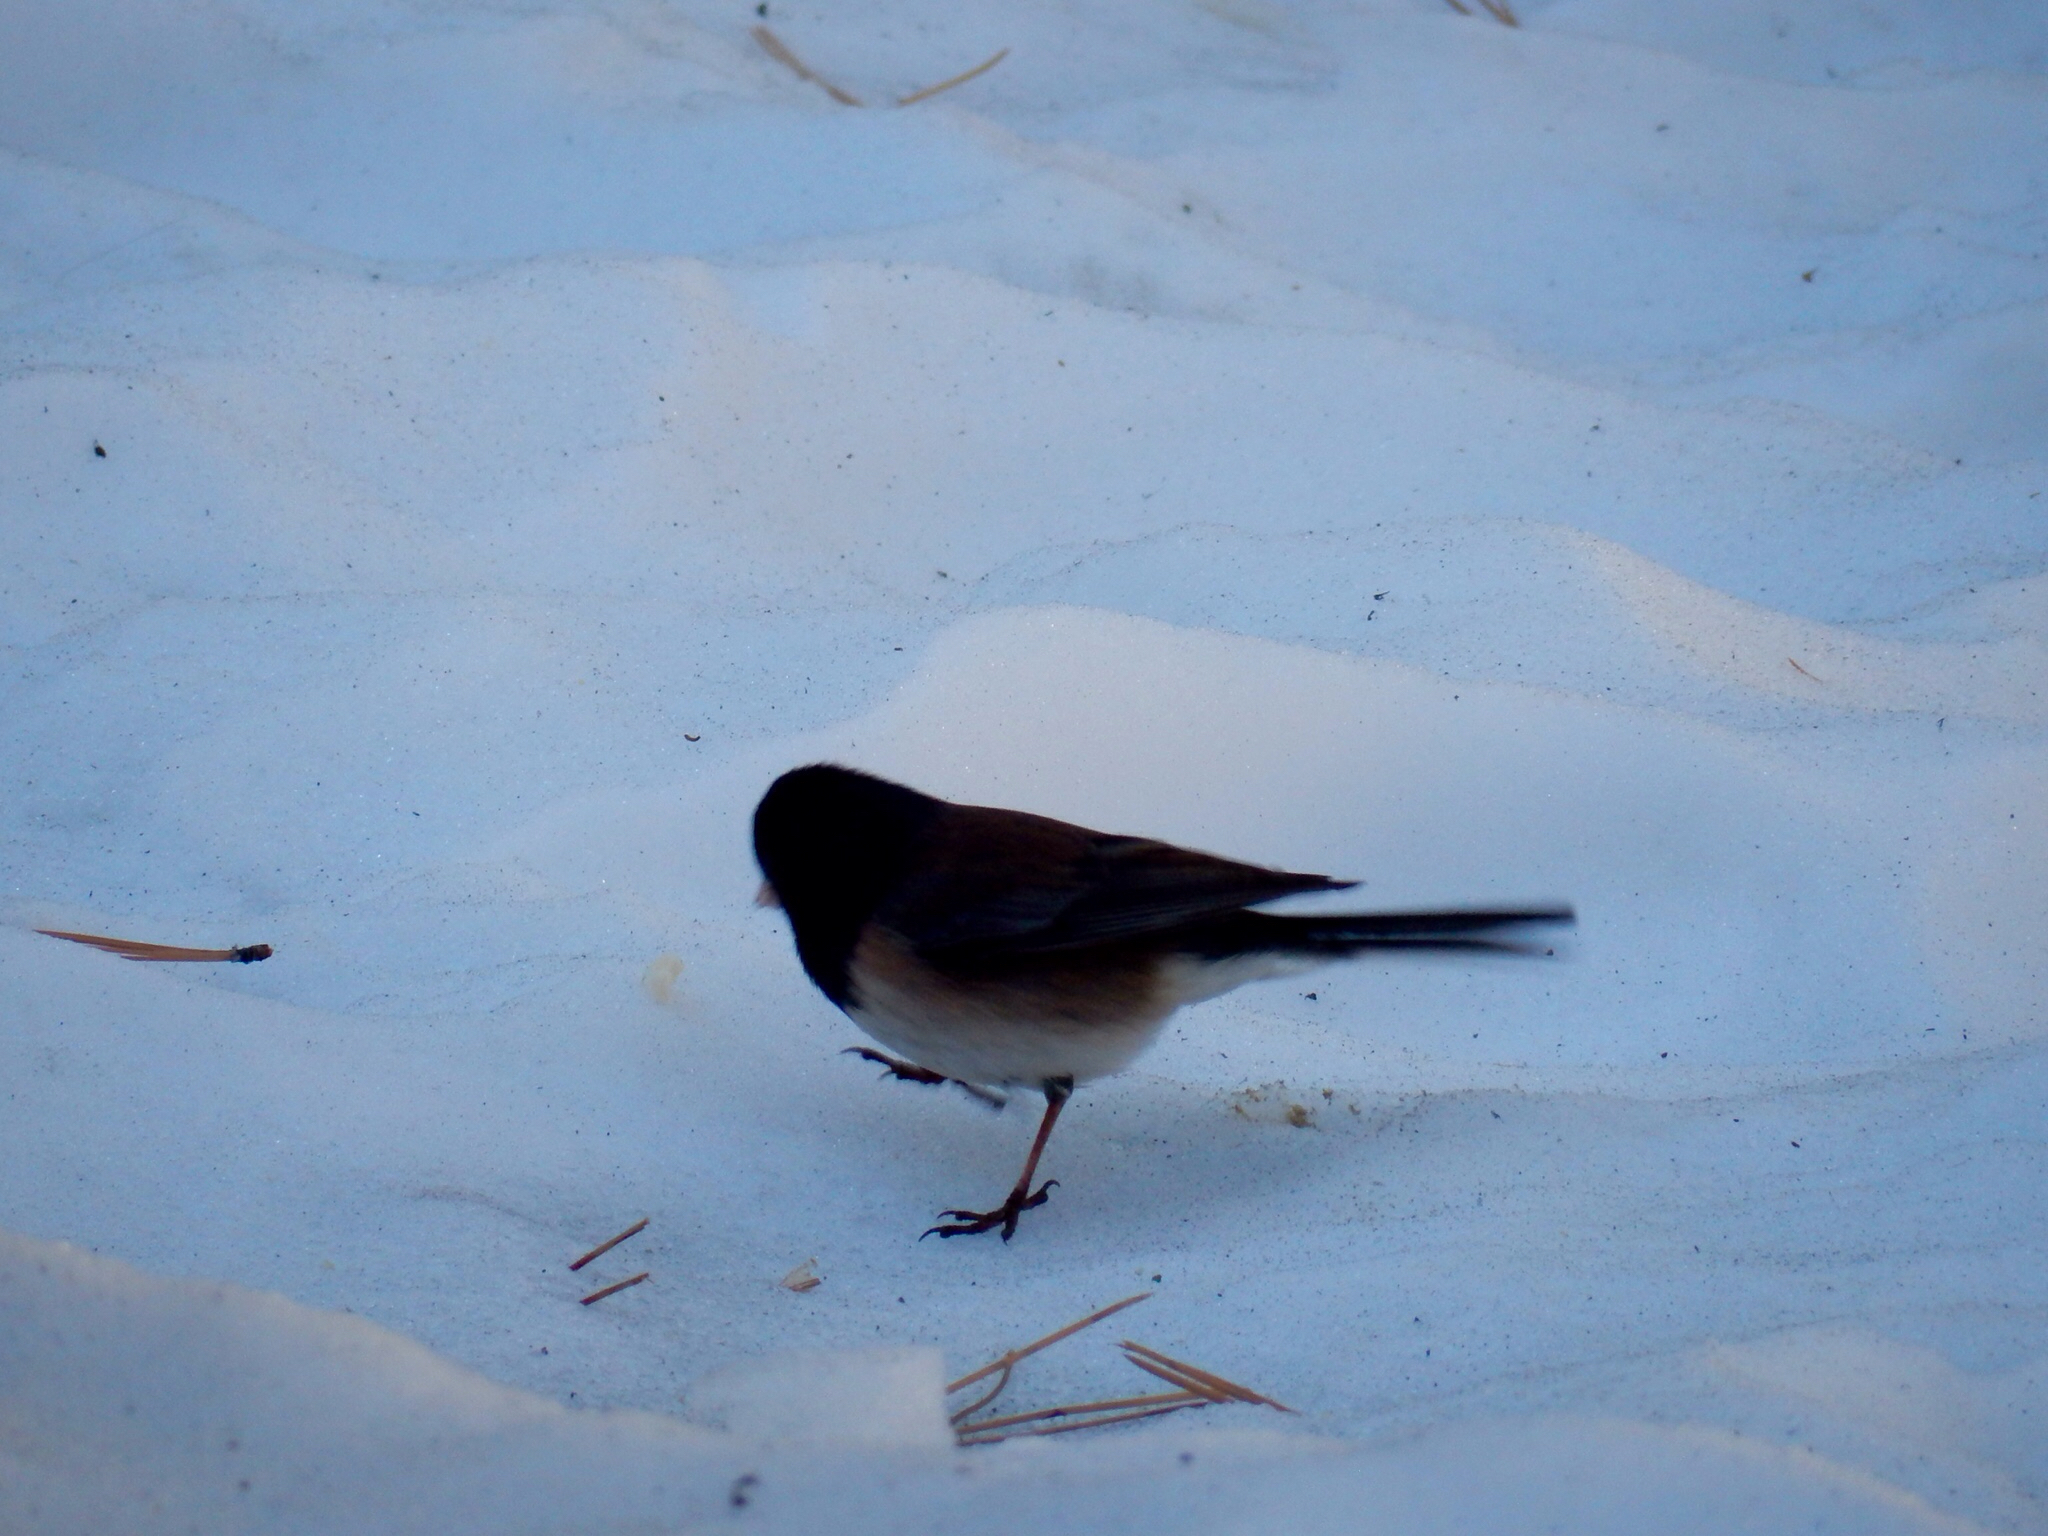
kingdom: Animalia
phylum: Chordata
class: Aves
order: Passeriformes
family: Passerellidae
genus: Junco
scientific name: Junco hyemalis
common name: Dark-eyed junco
